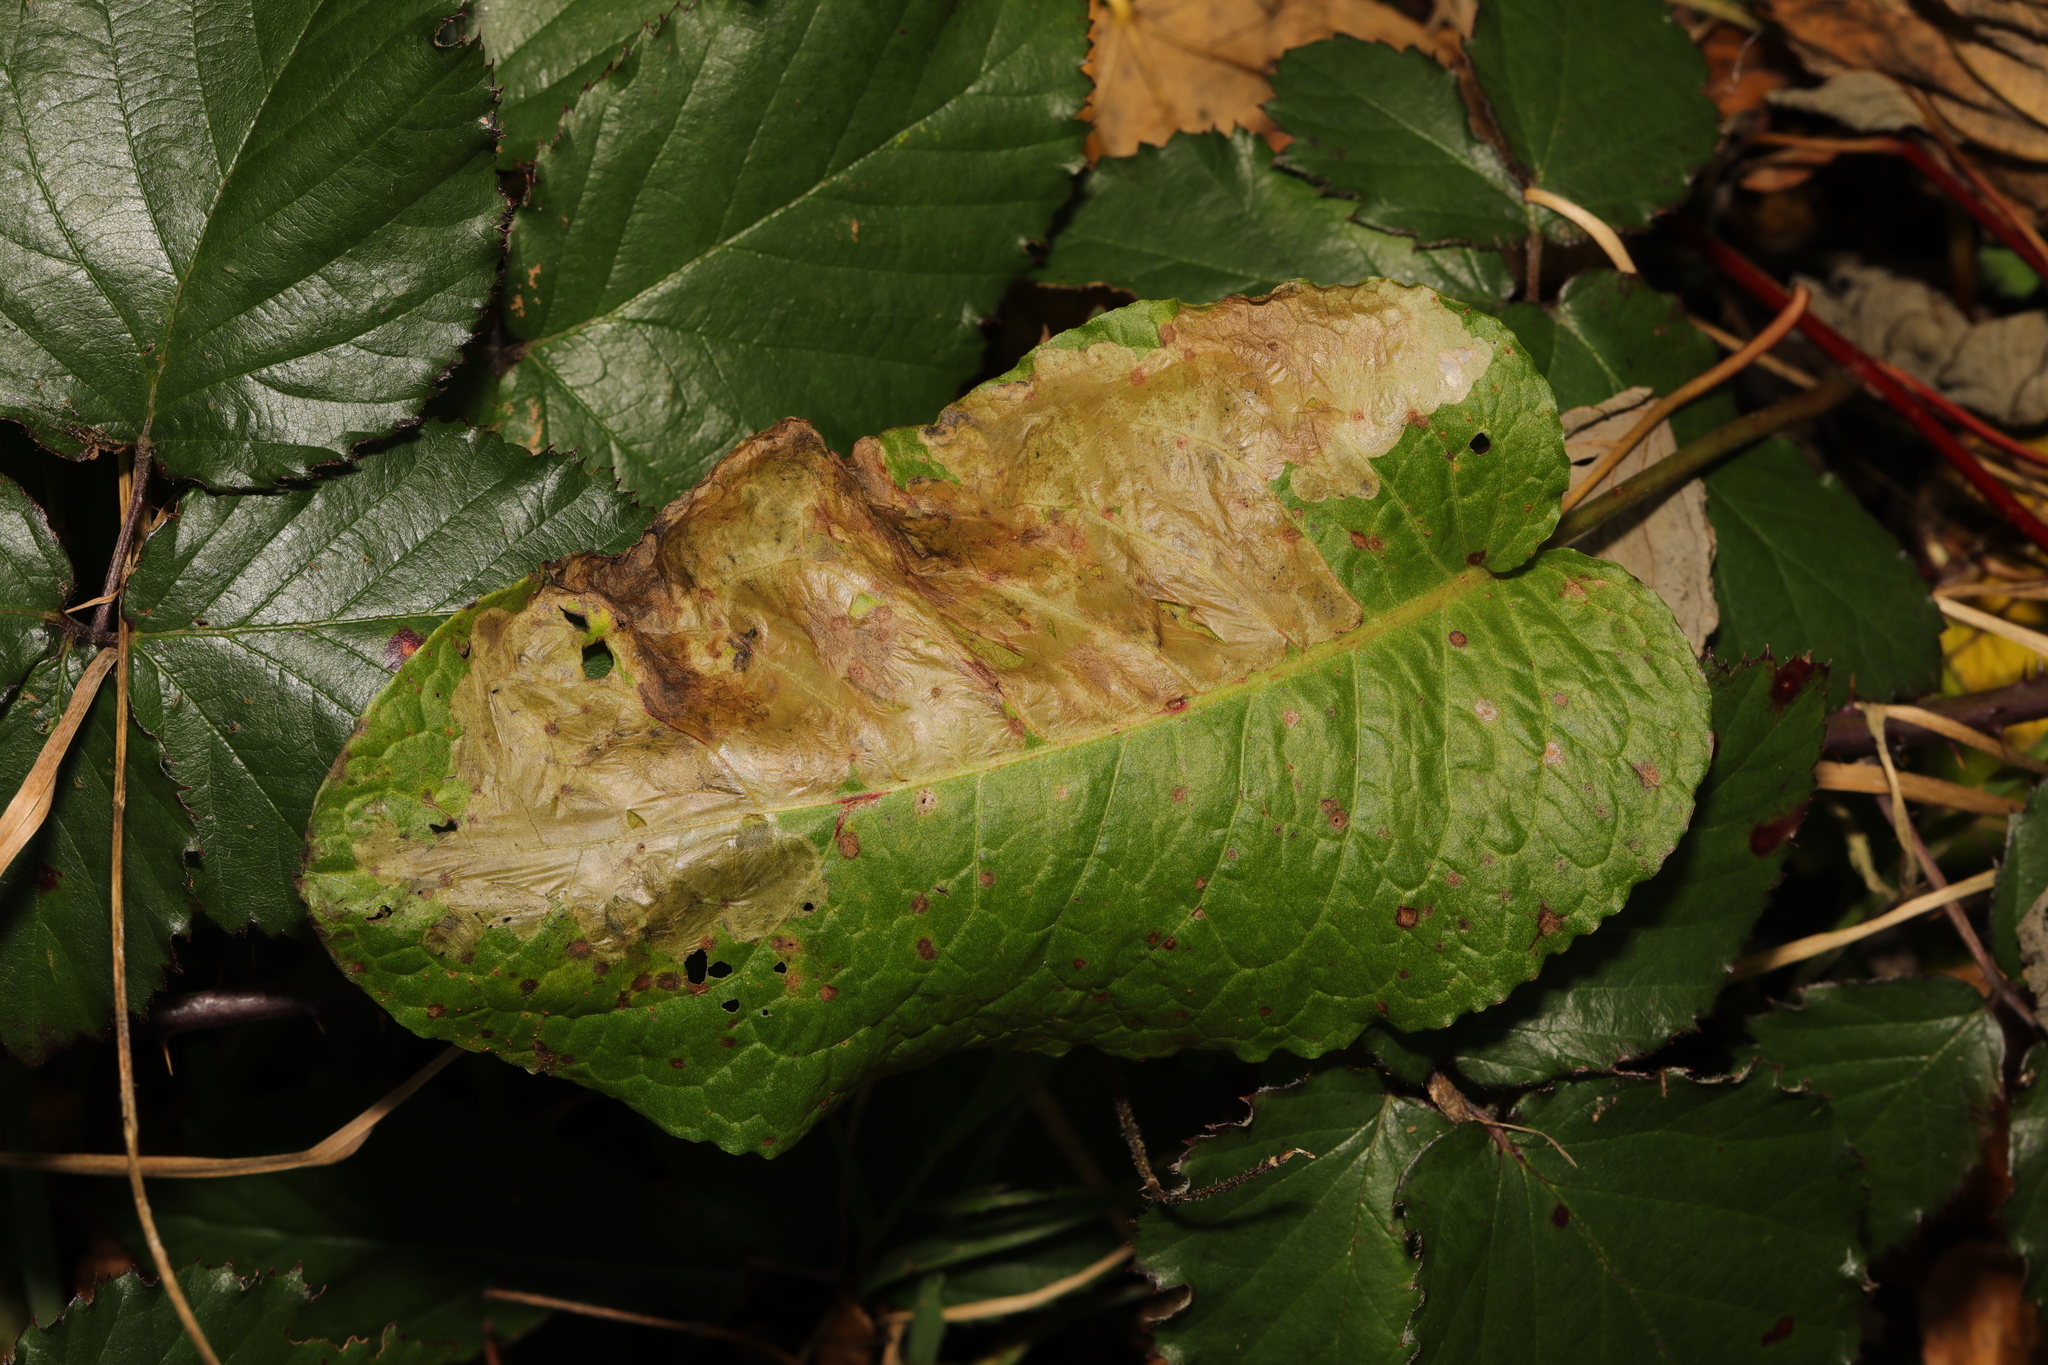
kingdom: Plantae
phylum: Tracheophyta
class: Magnoliopsida
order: Caryophyllales
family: Polygonaceae
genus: Rumex
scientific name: Rumex obtusifolius
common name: Bitter dock
